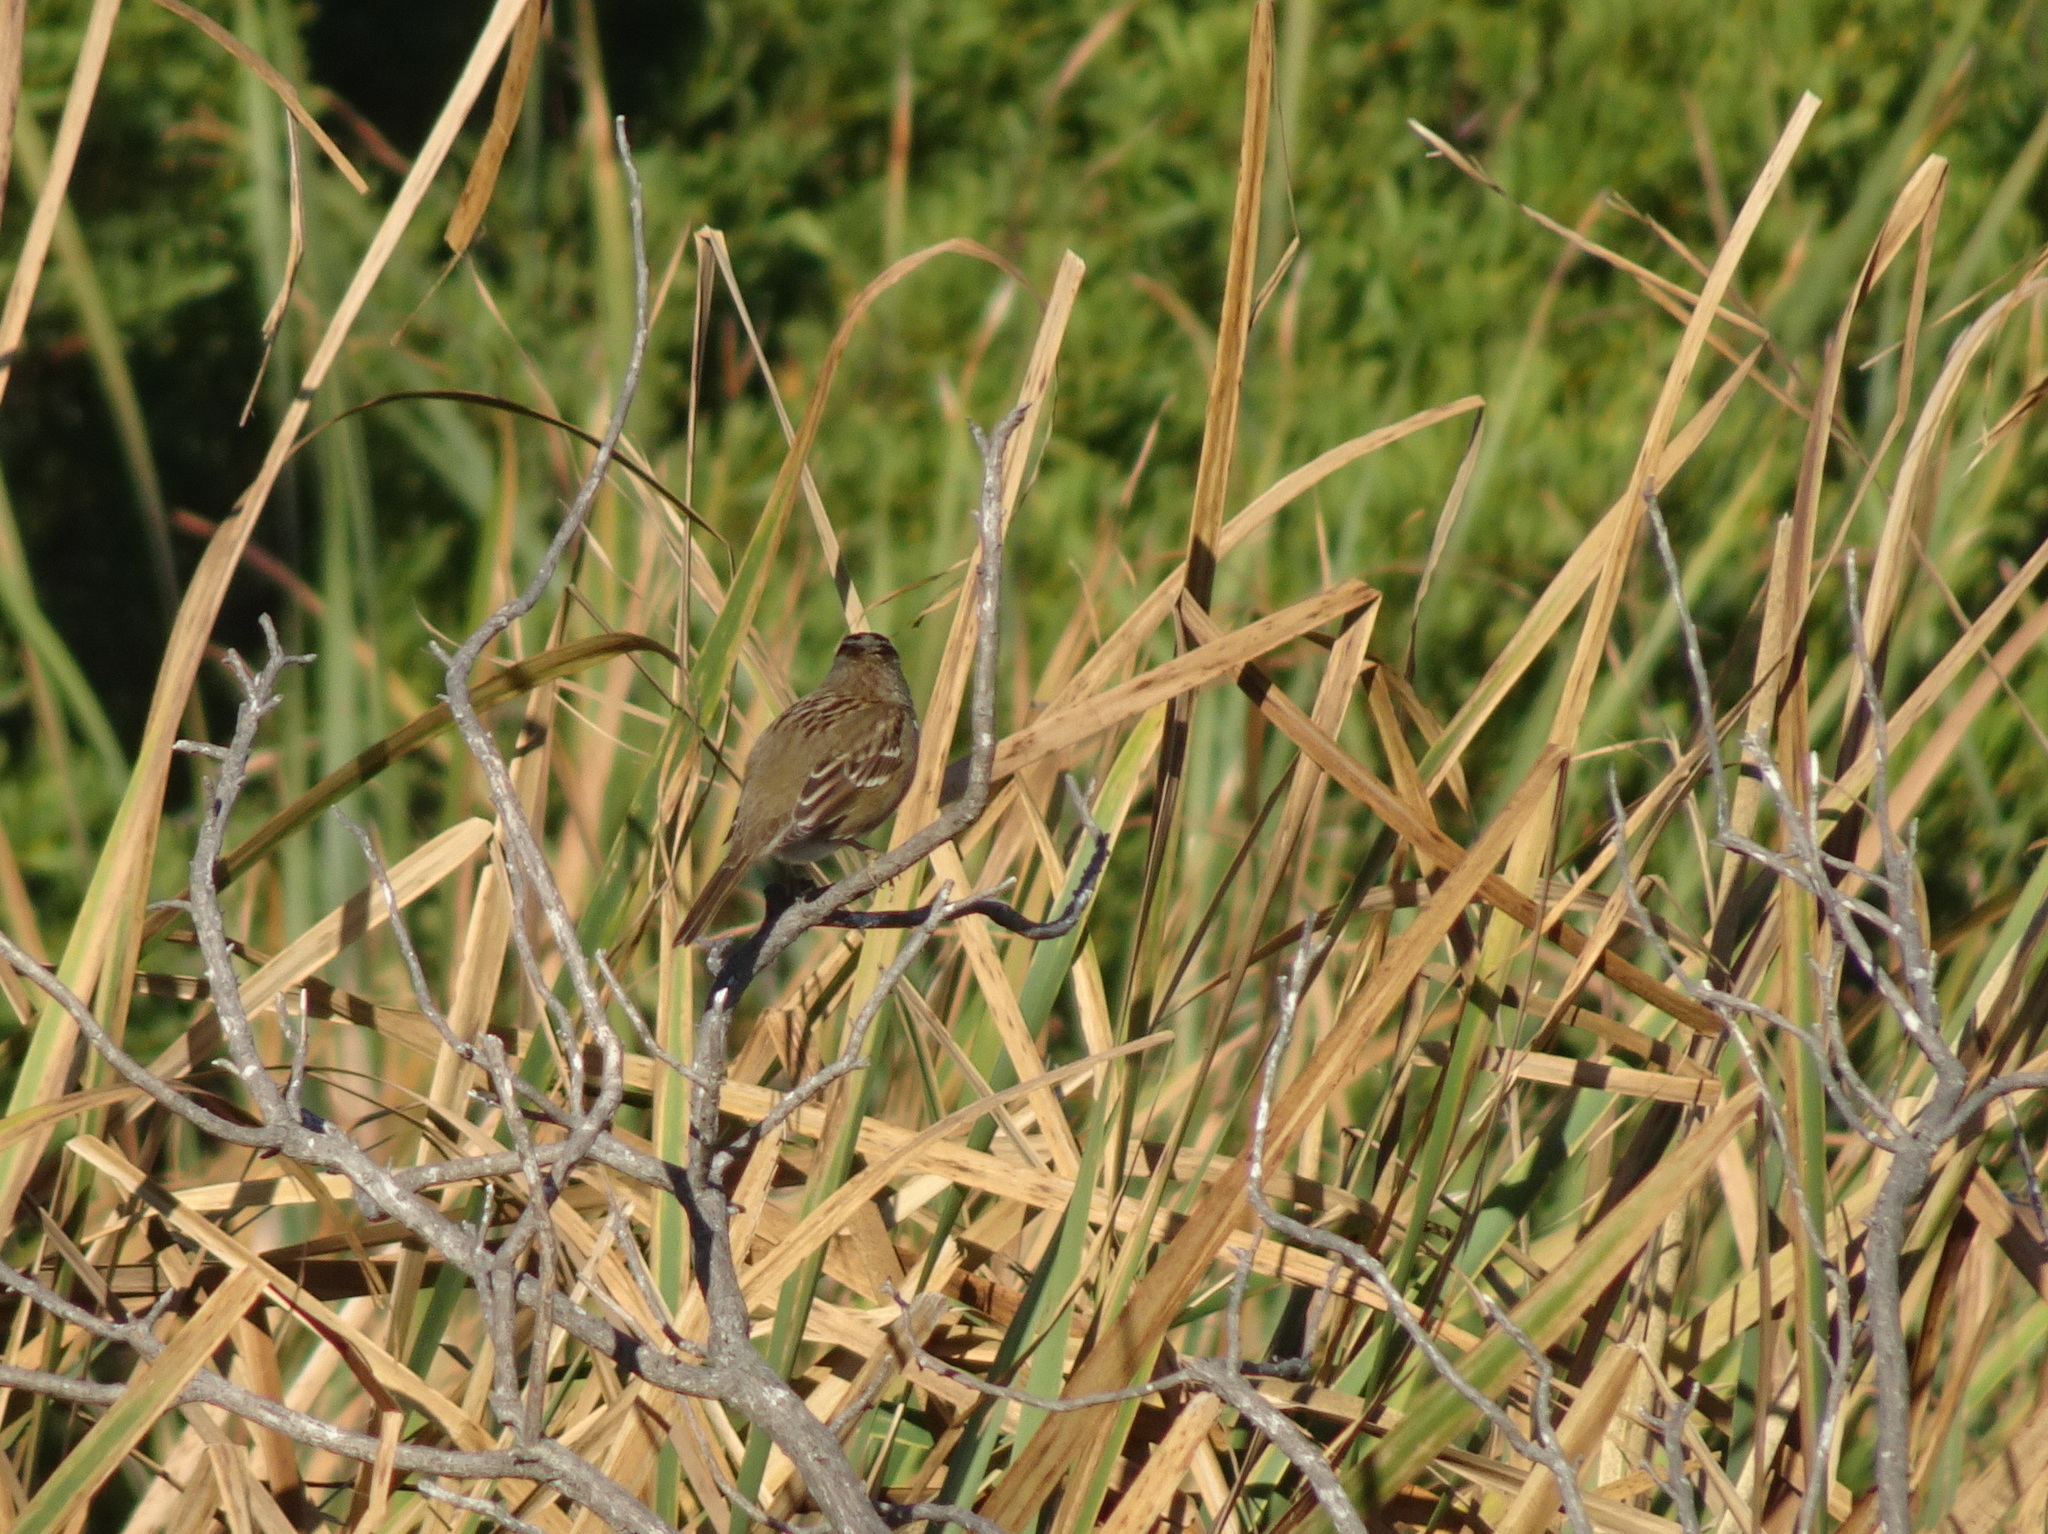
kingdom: Animalia
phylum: Chordata
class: Aves
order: Passeriformes
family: Passerellidae
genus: Zonotrichia
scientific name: Zonotrichia leucophrys
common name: White-crowned sparrow
